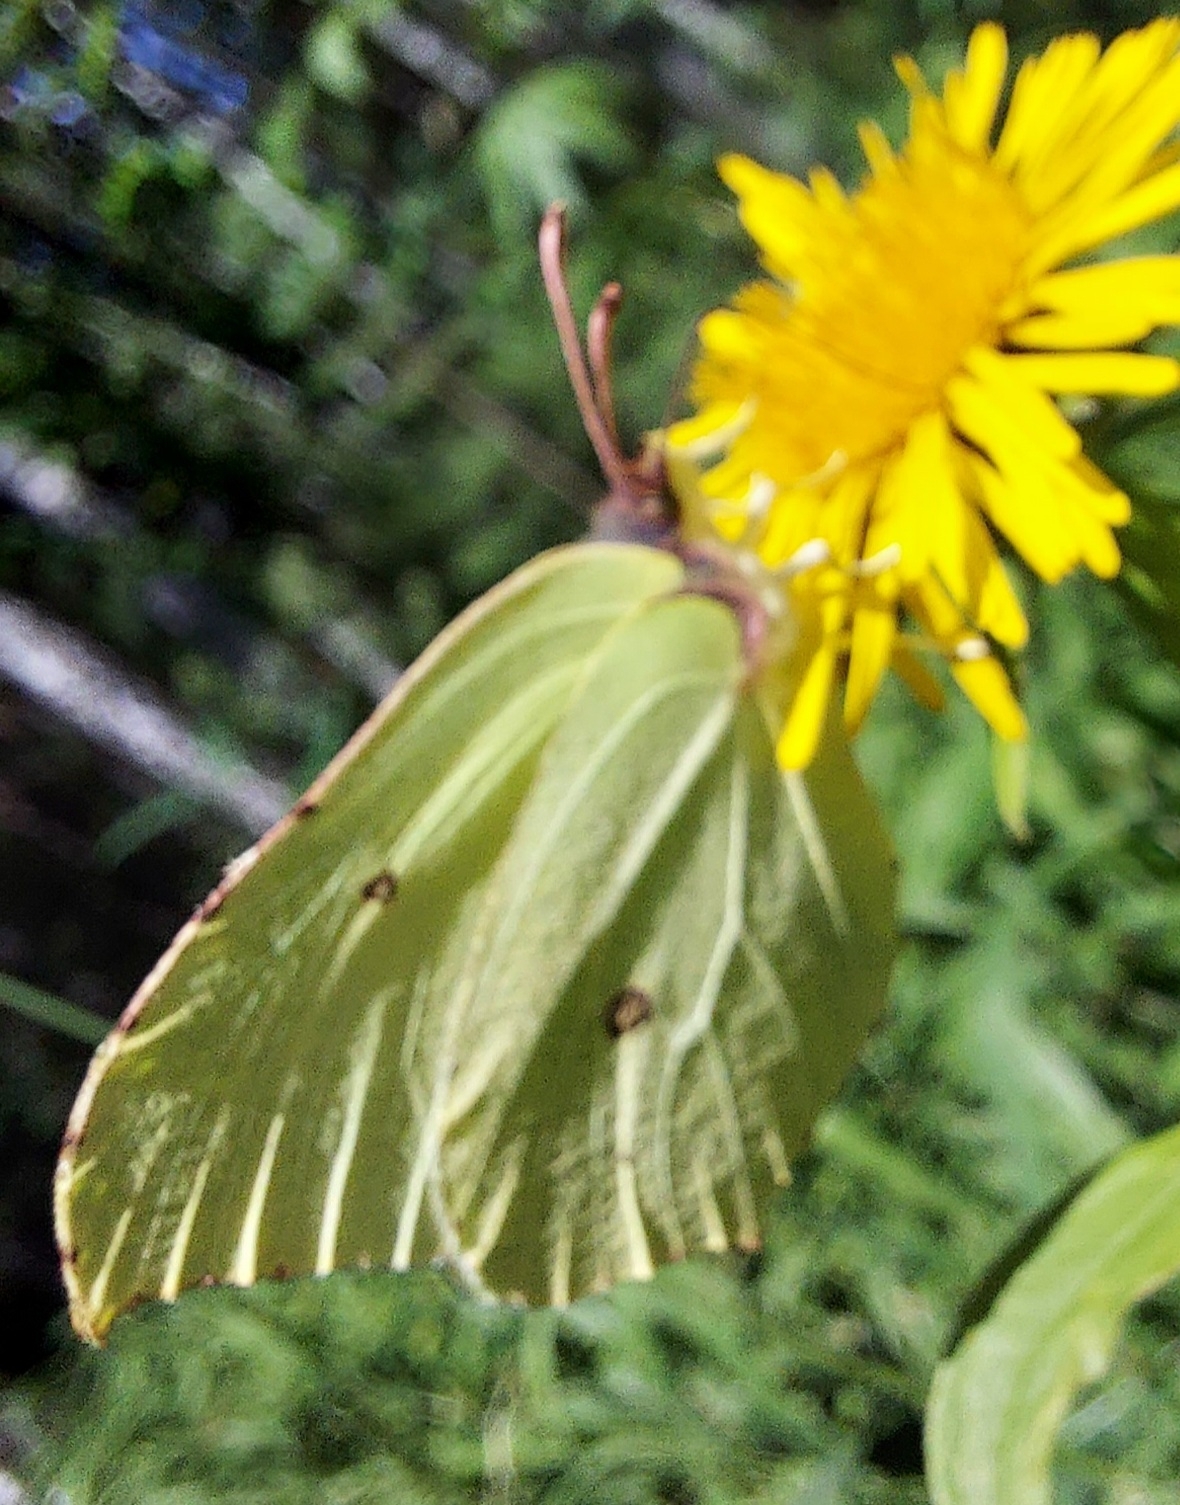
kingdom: Animalia
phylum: Arthropoda
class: Insecta
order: Lepidoptera
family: Pieridae
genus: Gonepteryx
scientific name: Gonepteryx rhamni
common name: Brimstone
